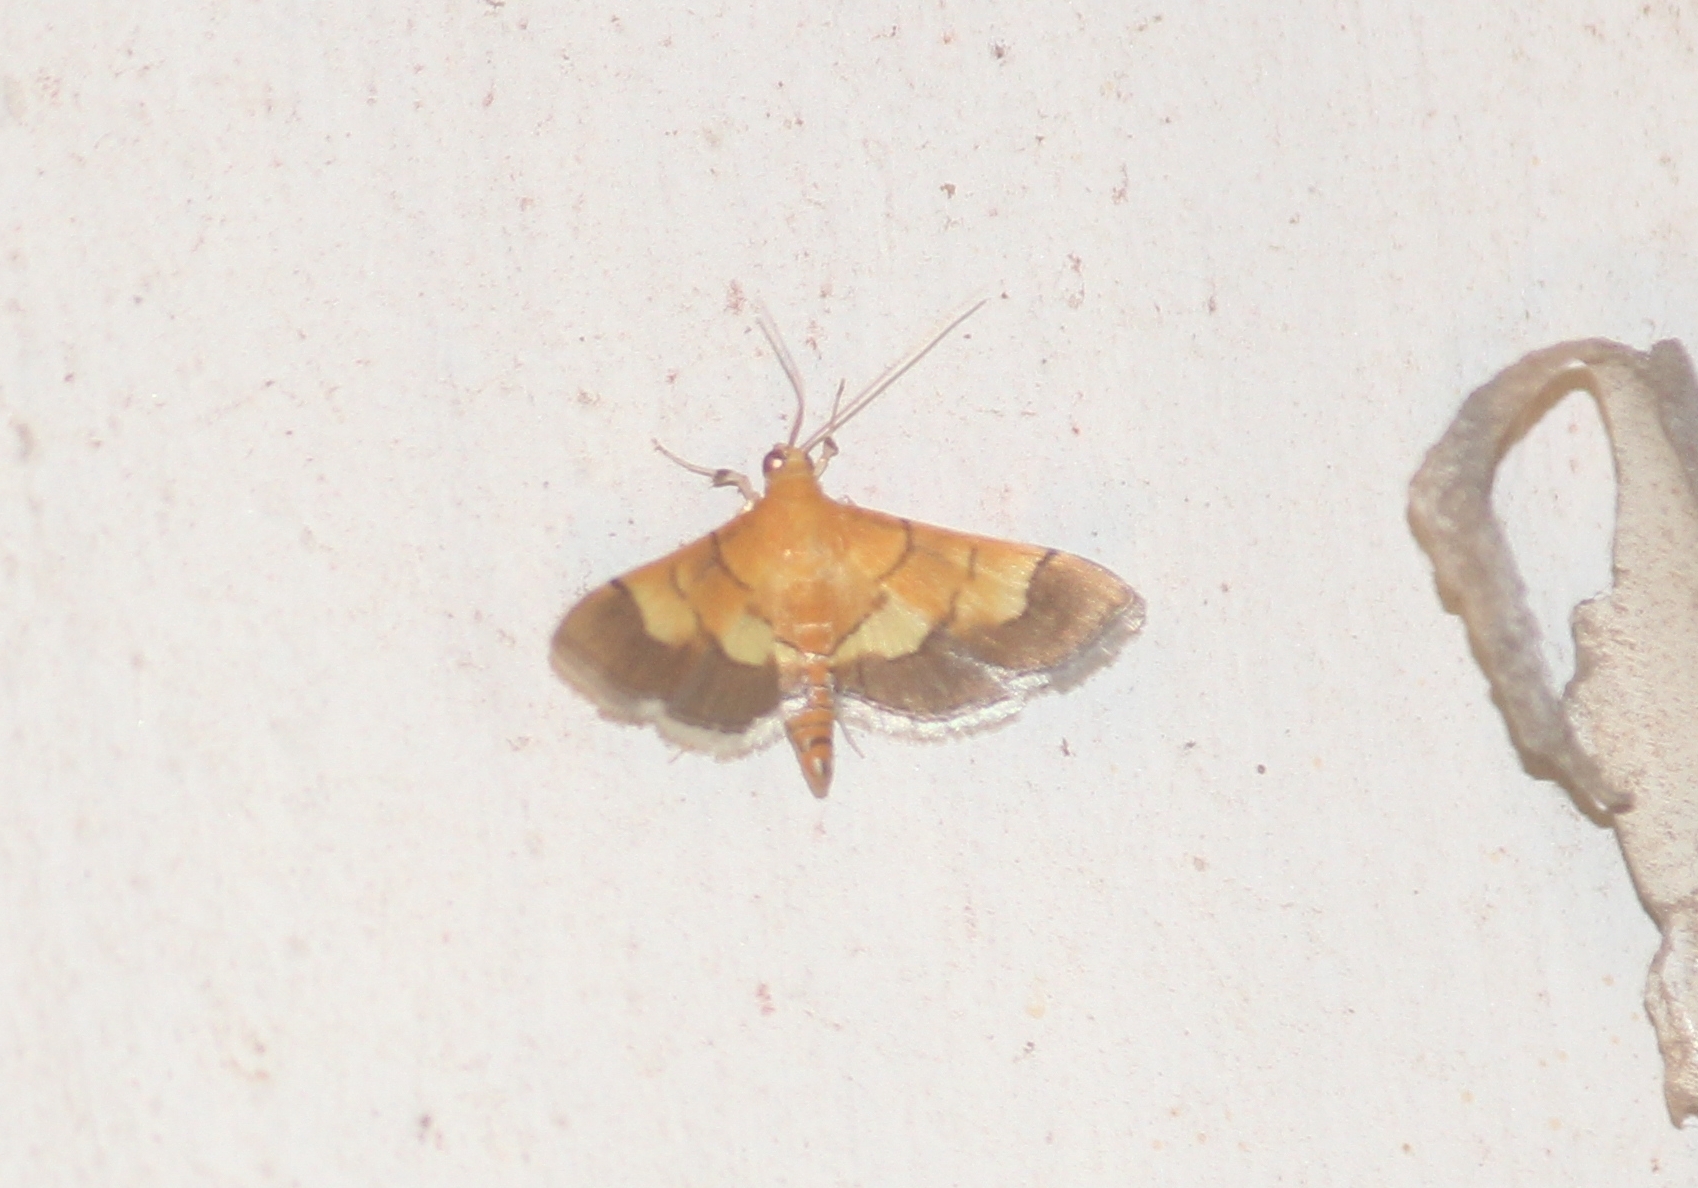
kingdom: Animalia
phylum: Arthropoda
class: Insecta
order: Lepidoptera
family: Crambidae
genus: Syngamia
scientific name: Syngamia latimarginalis
